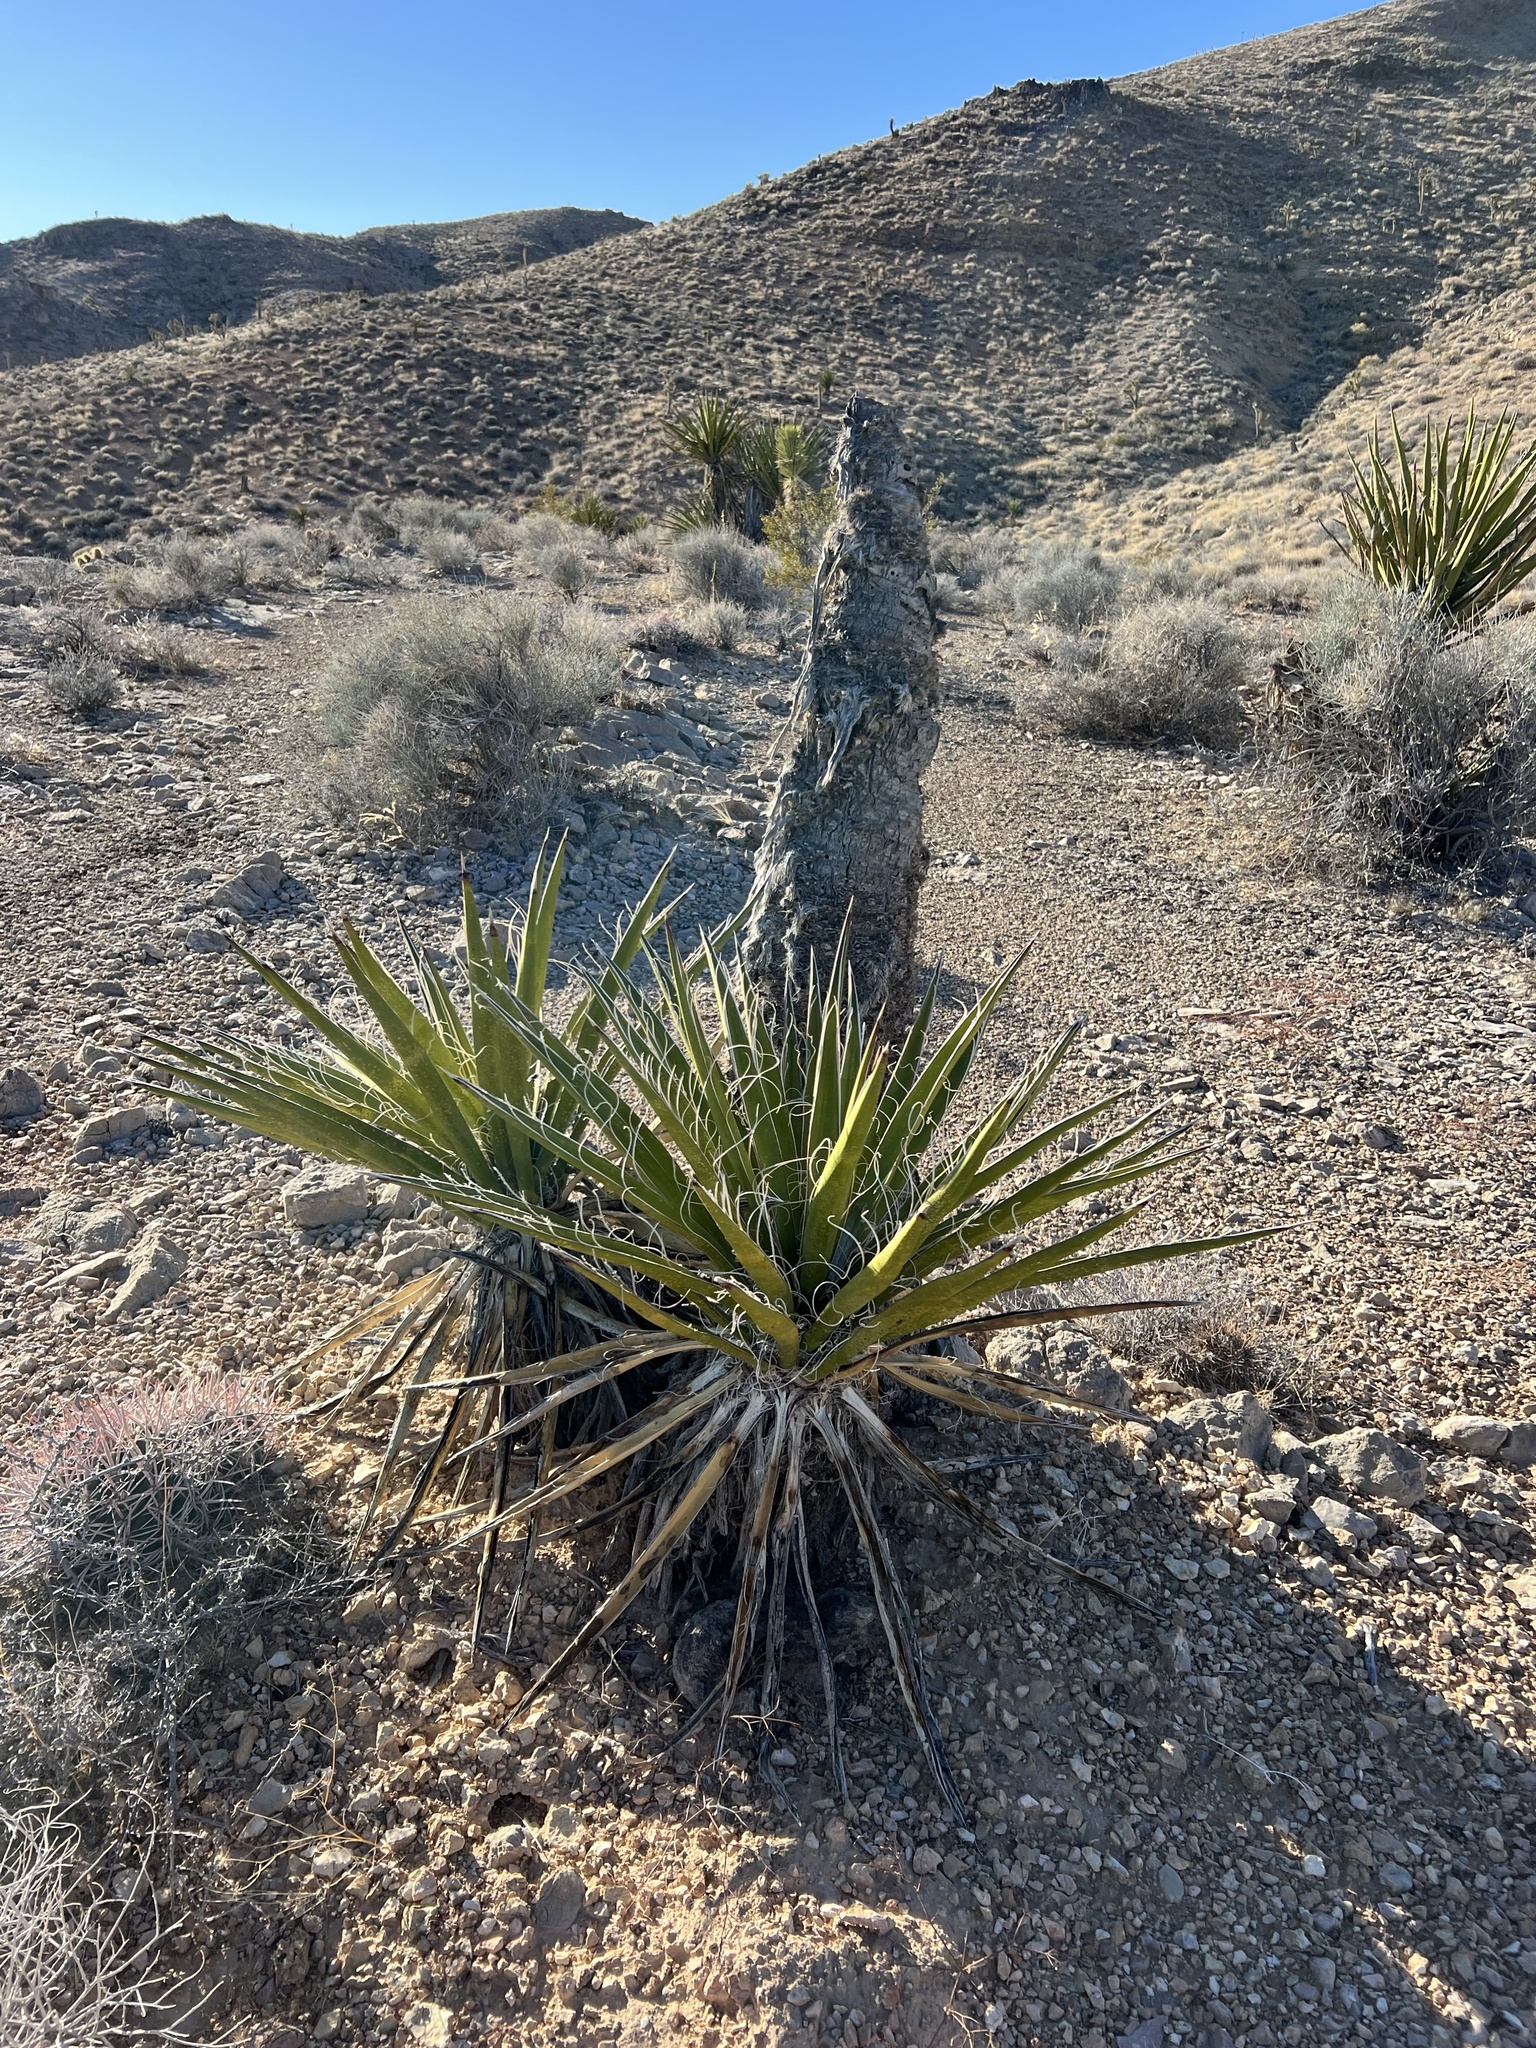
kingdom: Plantae
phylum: Tracheophyta
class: Liliopsida
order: Asparagales
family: Asparagaceae
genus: Yucca
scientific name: Yucca schidigera
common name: Mojave yucca
